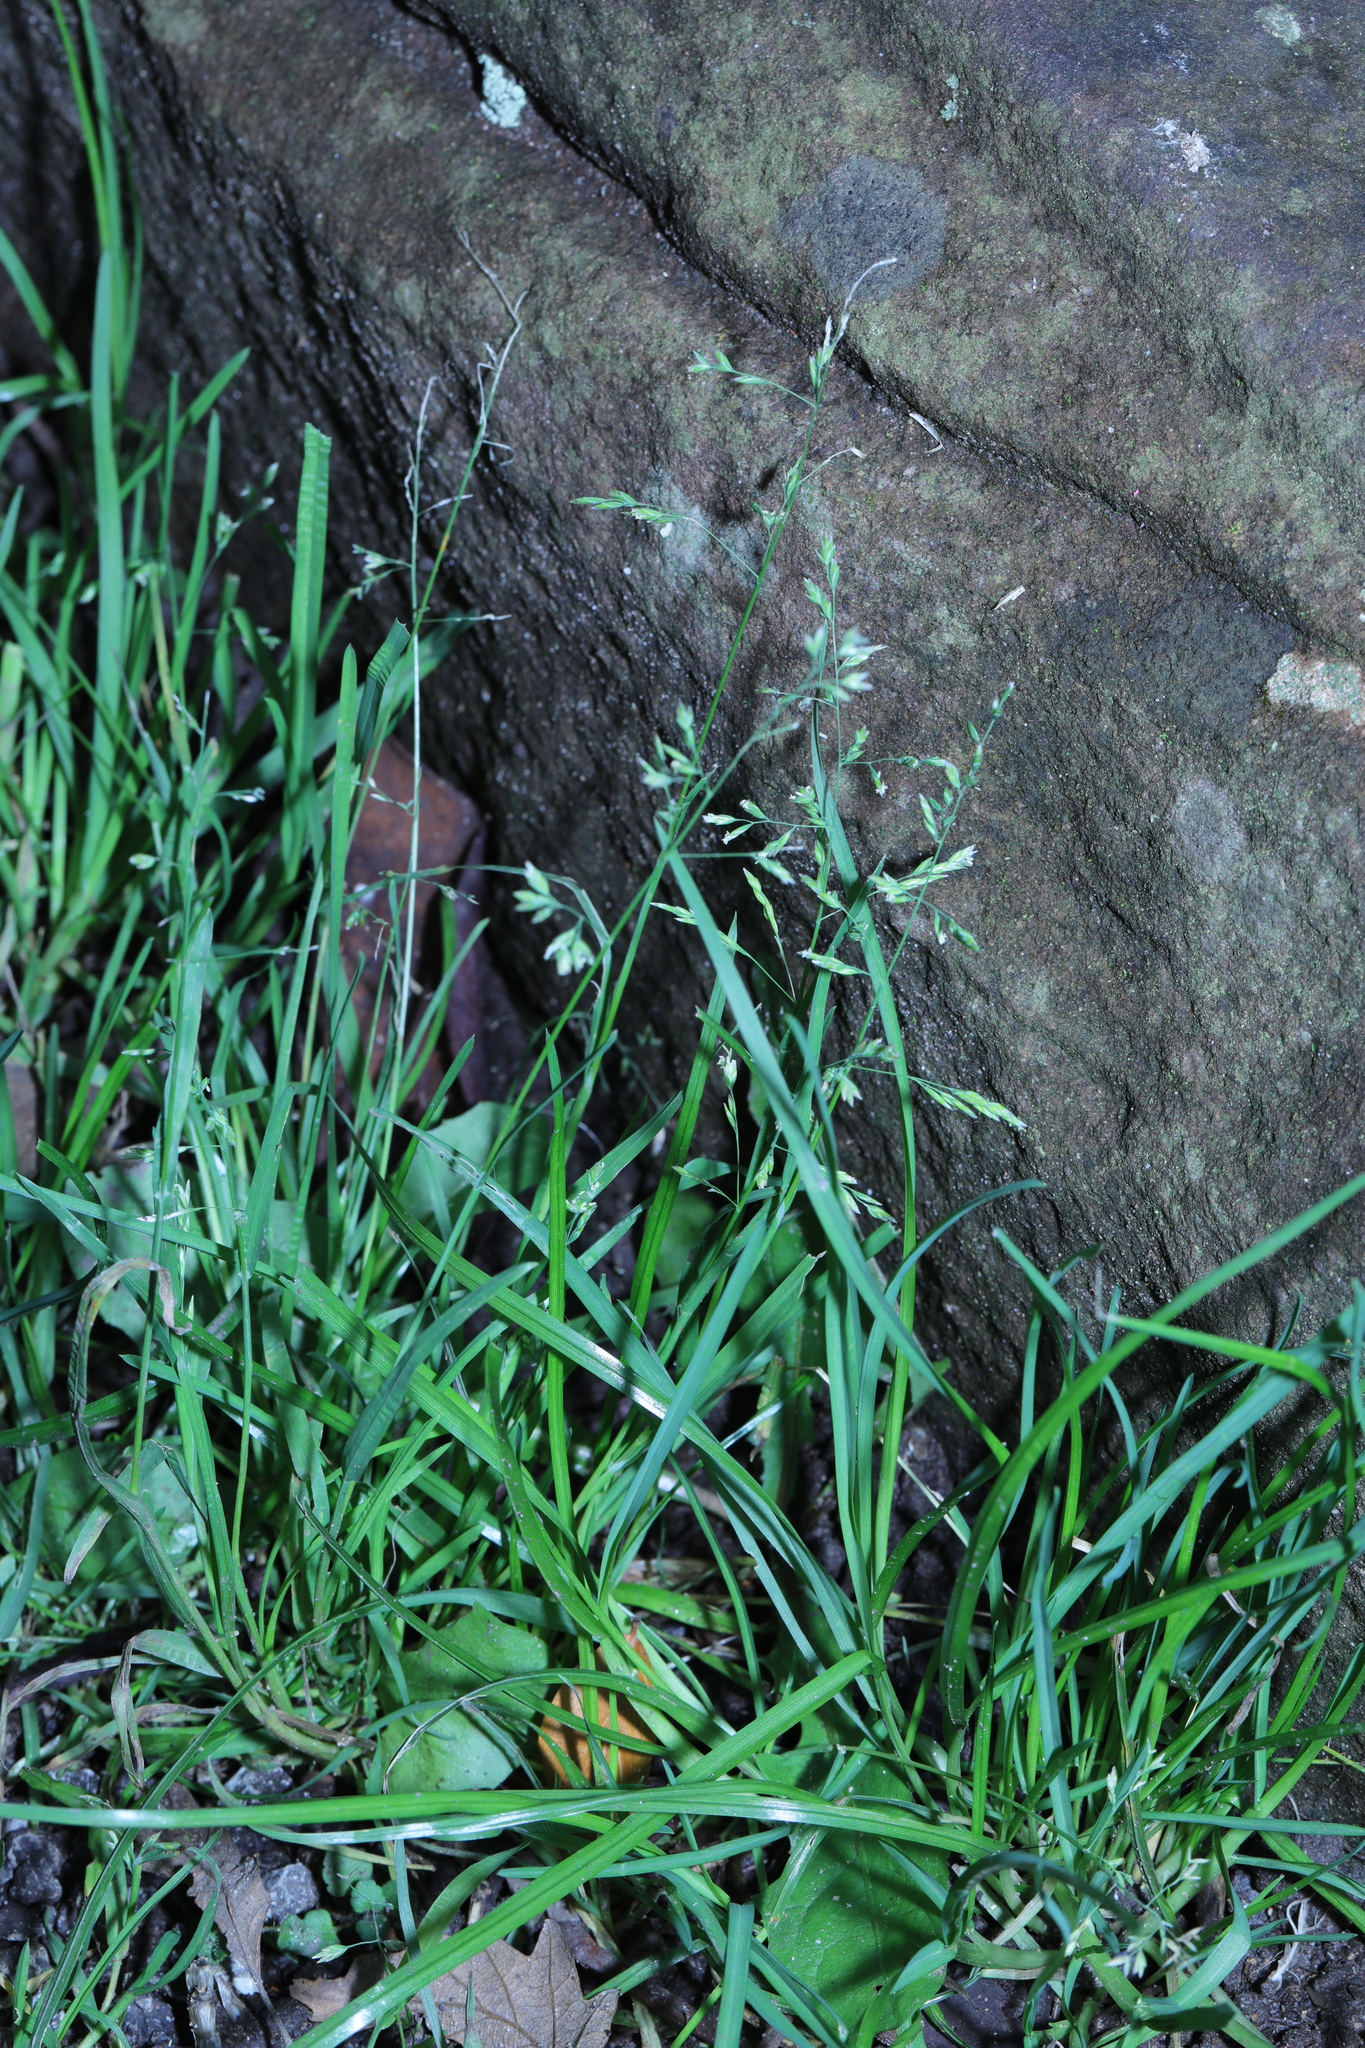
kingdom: Plantae
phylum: Tracheophyta
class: Liliopsida
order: Poales
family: Poaceae
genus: Poa
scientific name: Poa annua
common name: Annual bluegrass
